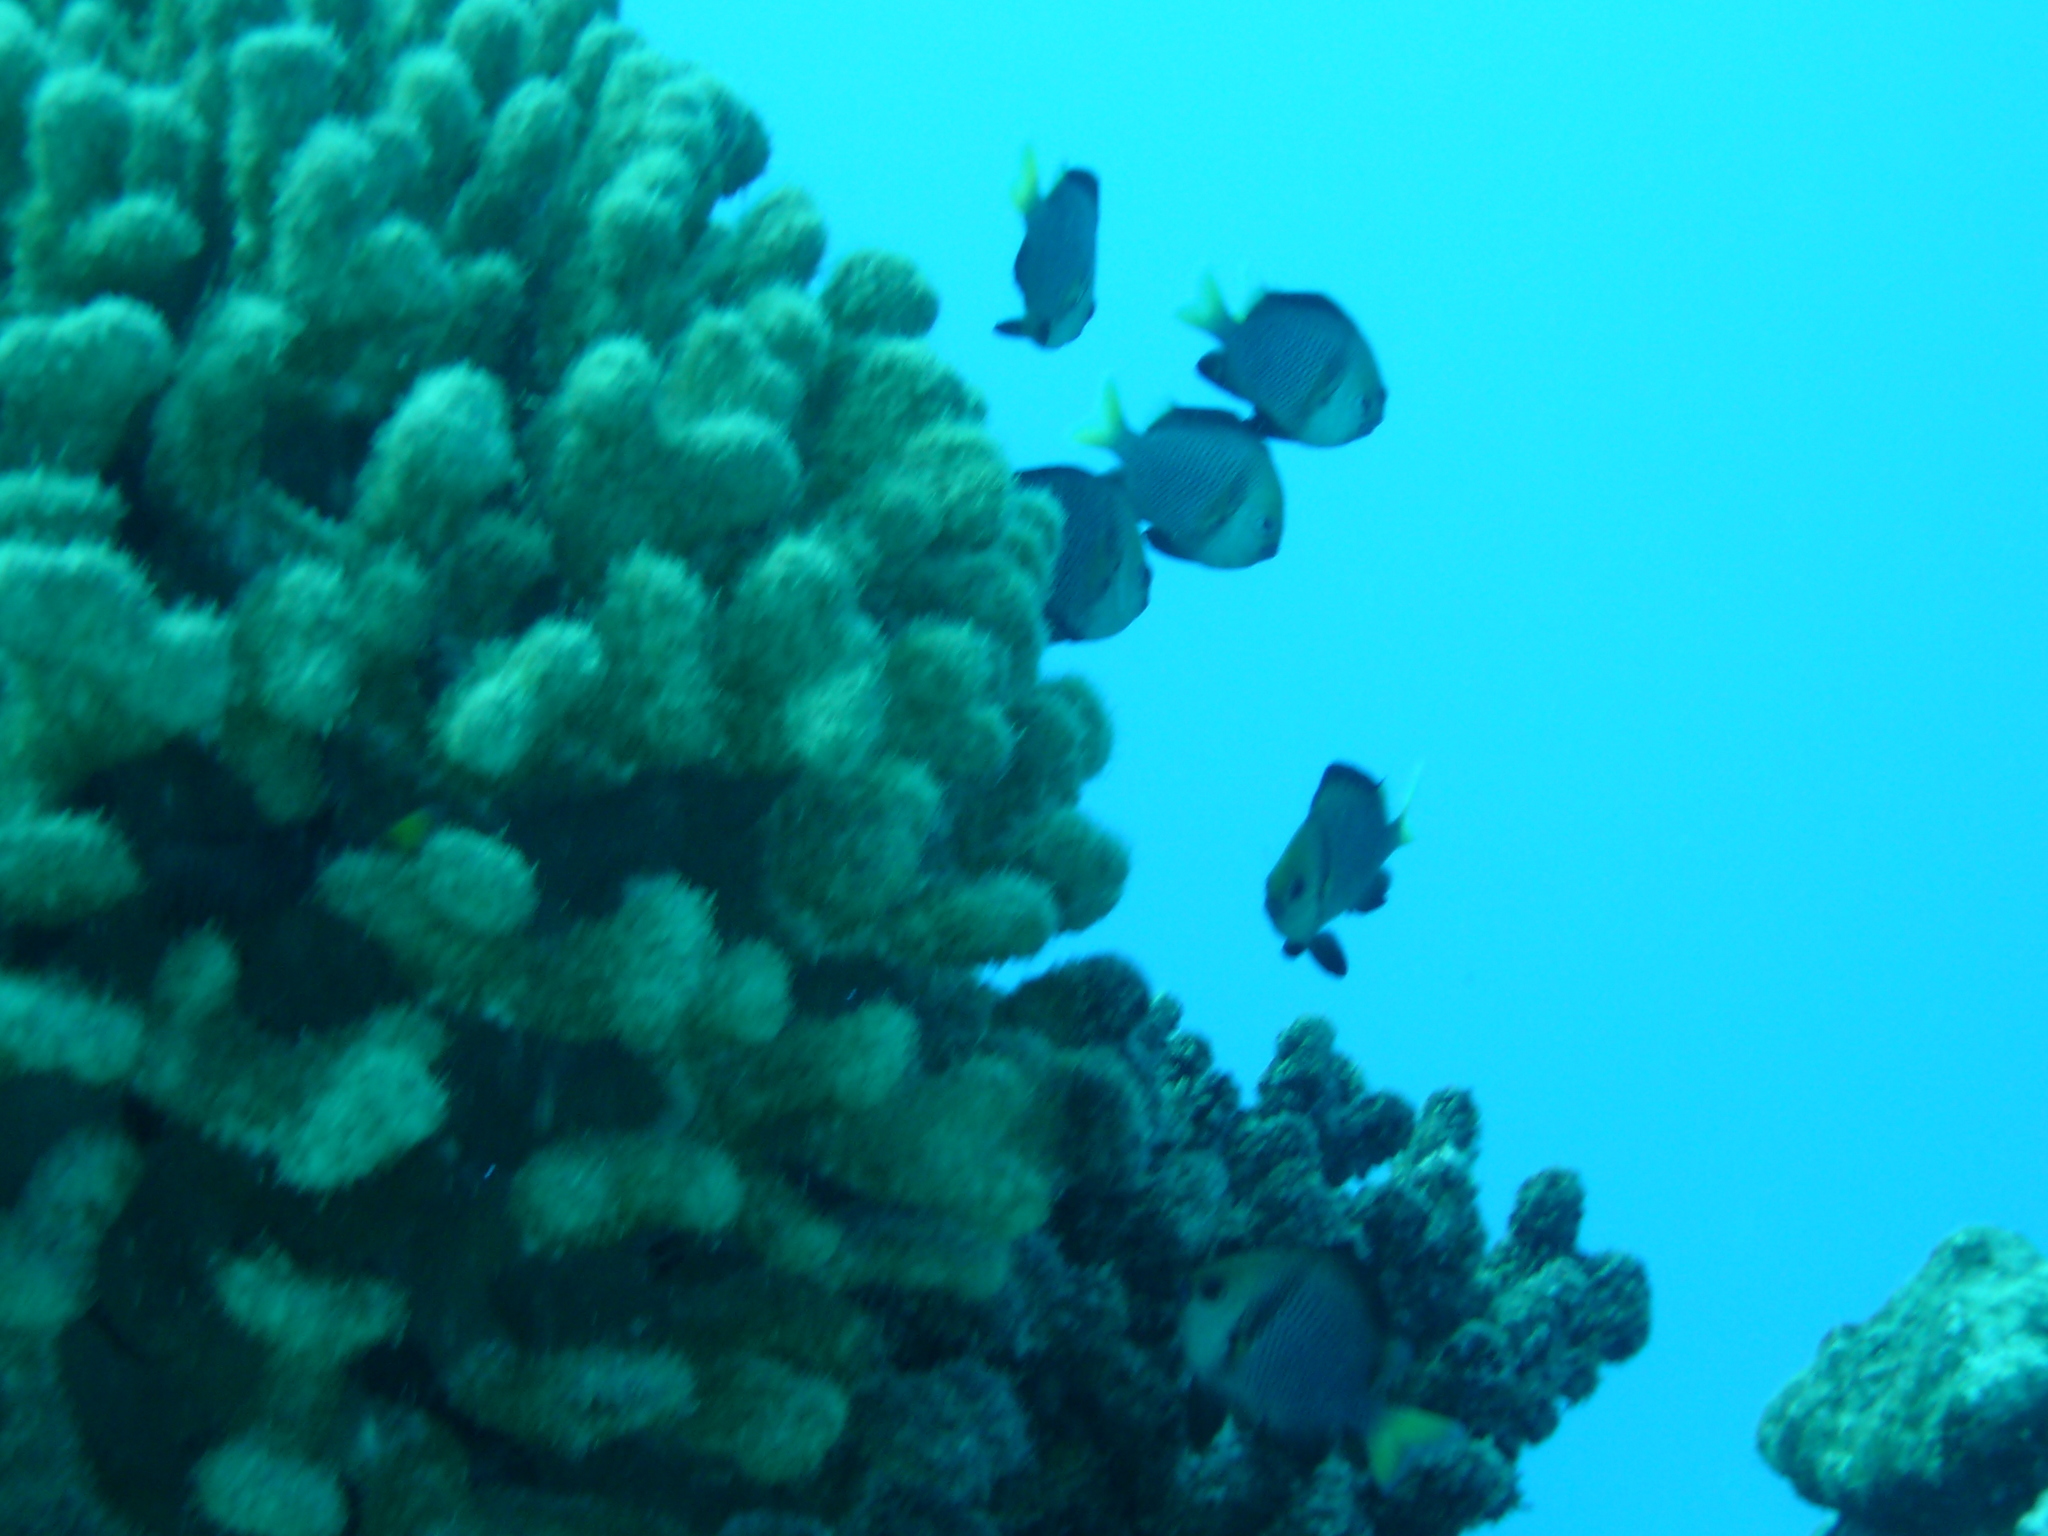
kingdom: Animalia
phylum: Chordata
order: Perciformes
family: Pomacentridae
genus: Dascyllus
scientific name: Dascyllus flavicaudus
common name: Yellow-tailed dascyllus
